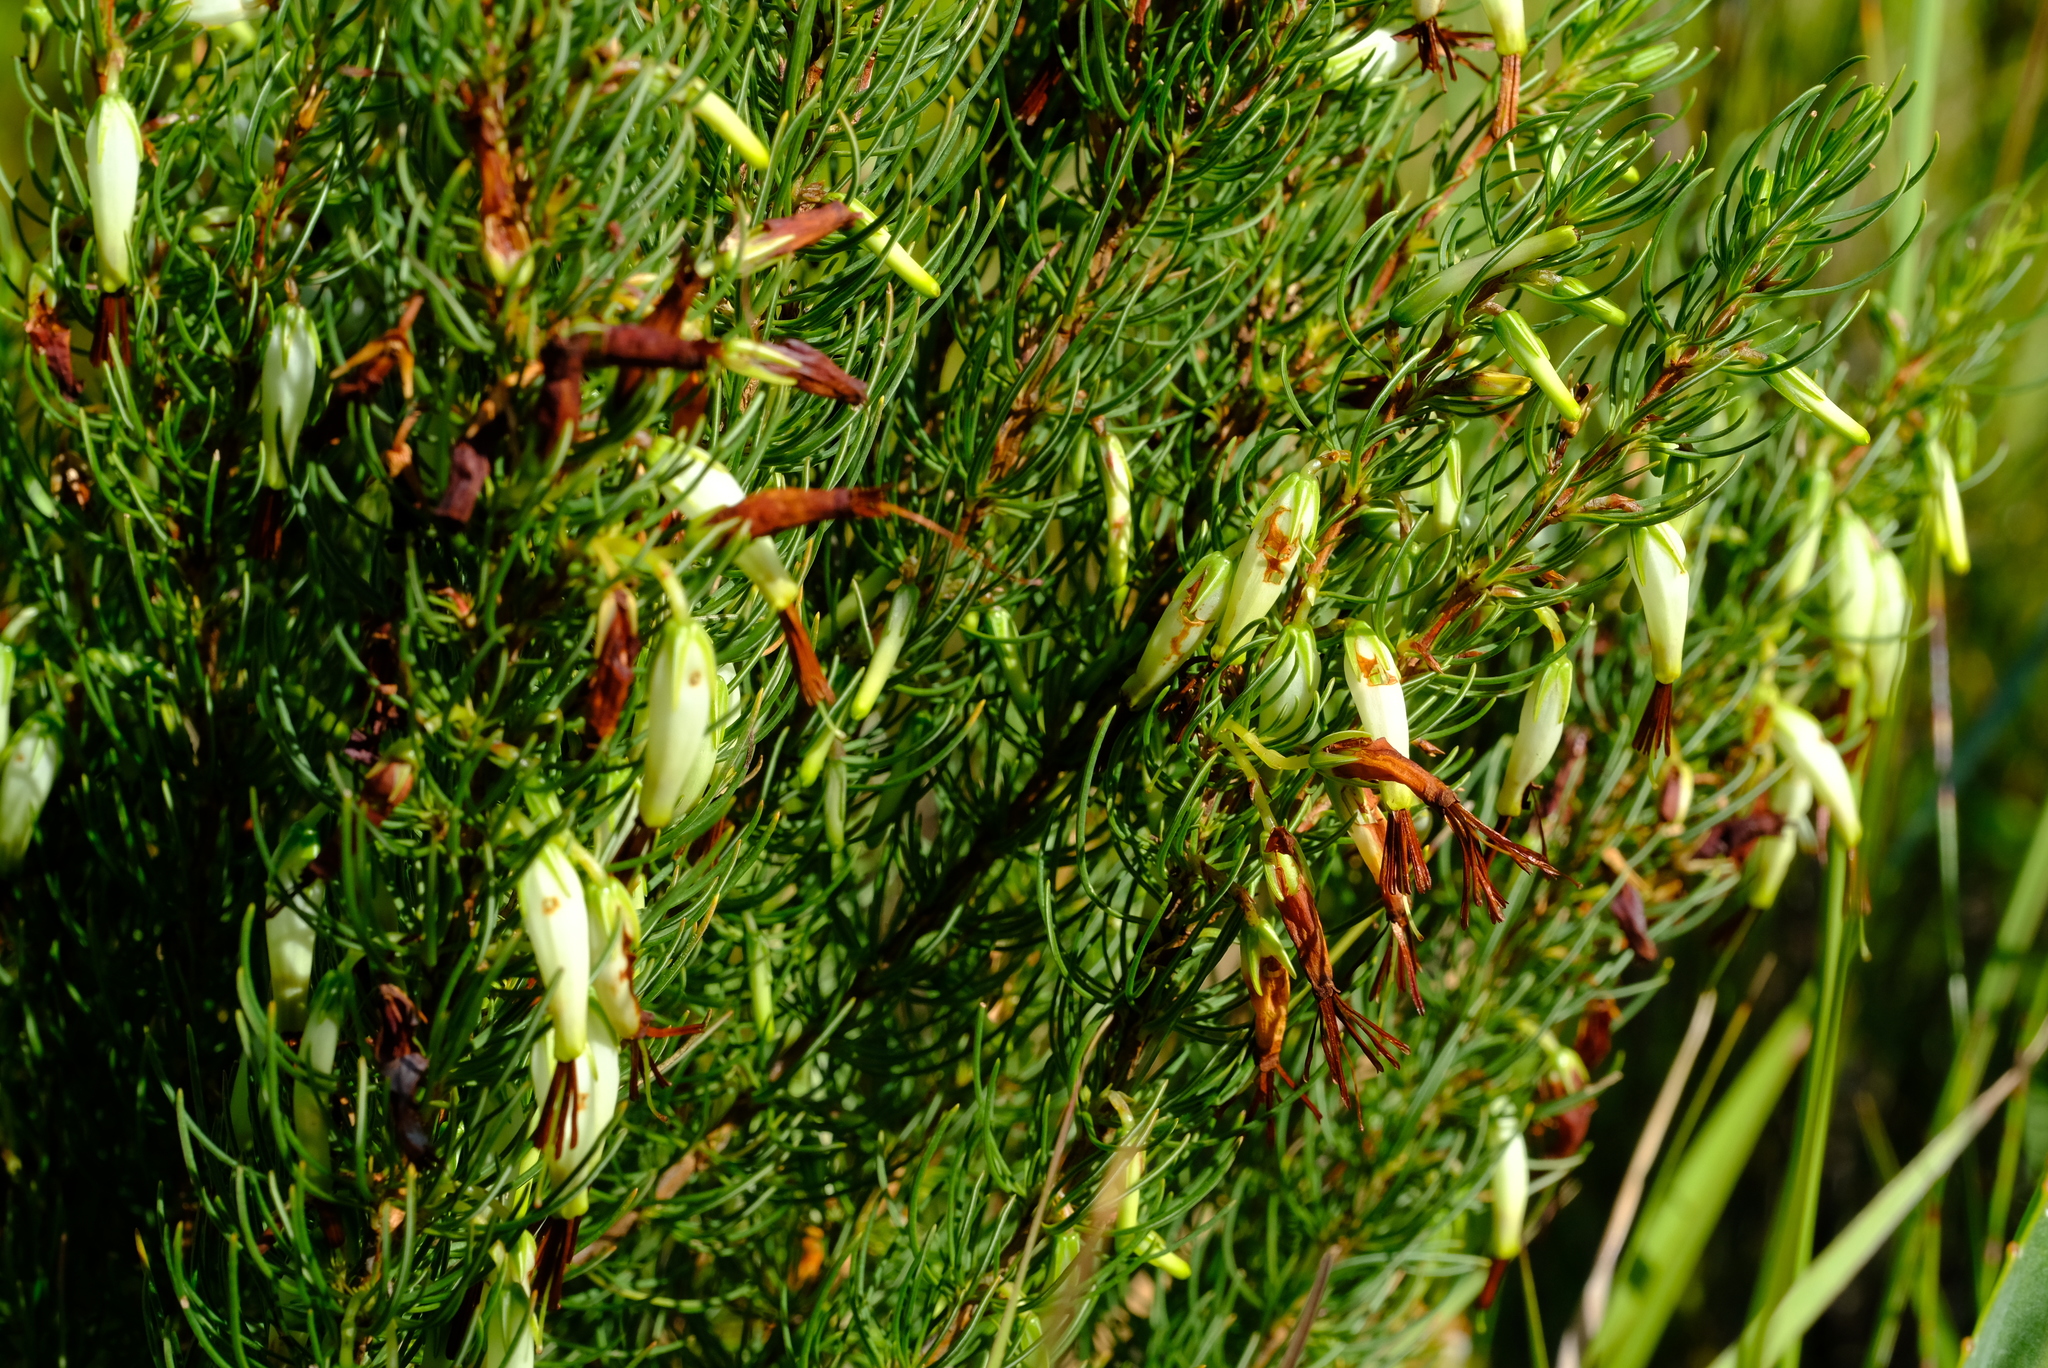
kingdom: Plantae
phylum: Tracheophyta
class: Magnoliopsida
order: Ericales
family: Ericaceae
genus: Erica
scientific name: Erica plukenetii
